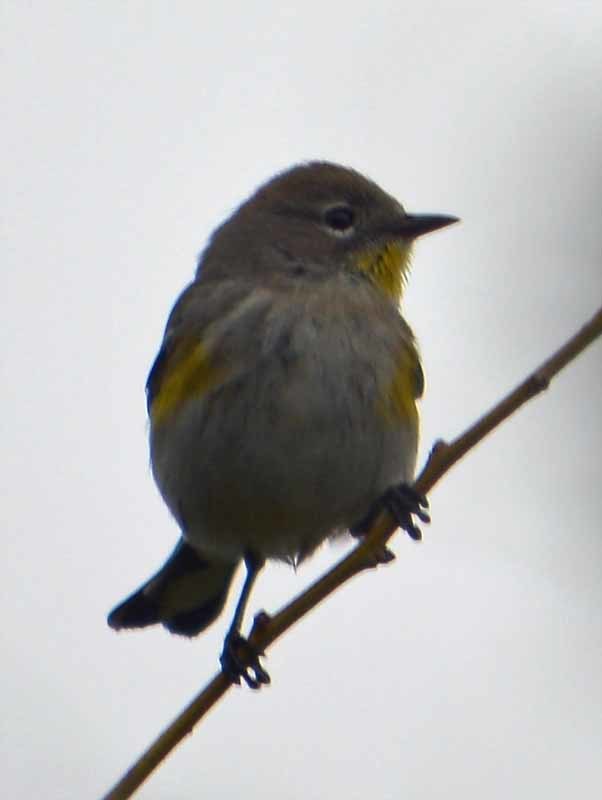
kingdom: Animalia
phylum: Chordata
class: Aves
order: Passeriformes
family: Parulidae
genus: Setophaga
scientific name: Setophaga coronata
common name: Myrtle warbler
